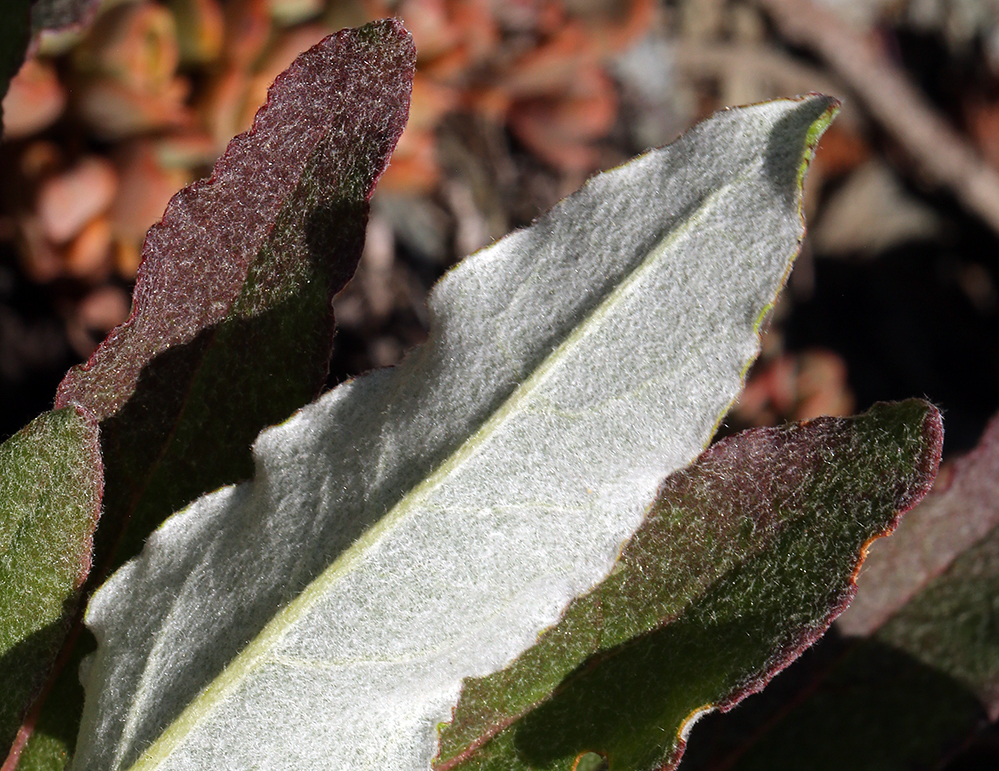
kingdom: Plantae
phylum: Tracheophyta
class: Magnoliopsida
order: Caryophyllales
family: Polygonaceae
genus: Eriogonum
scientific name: Eriogonum compositum
